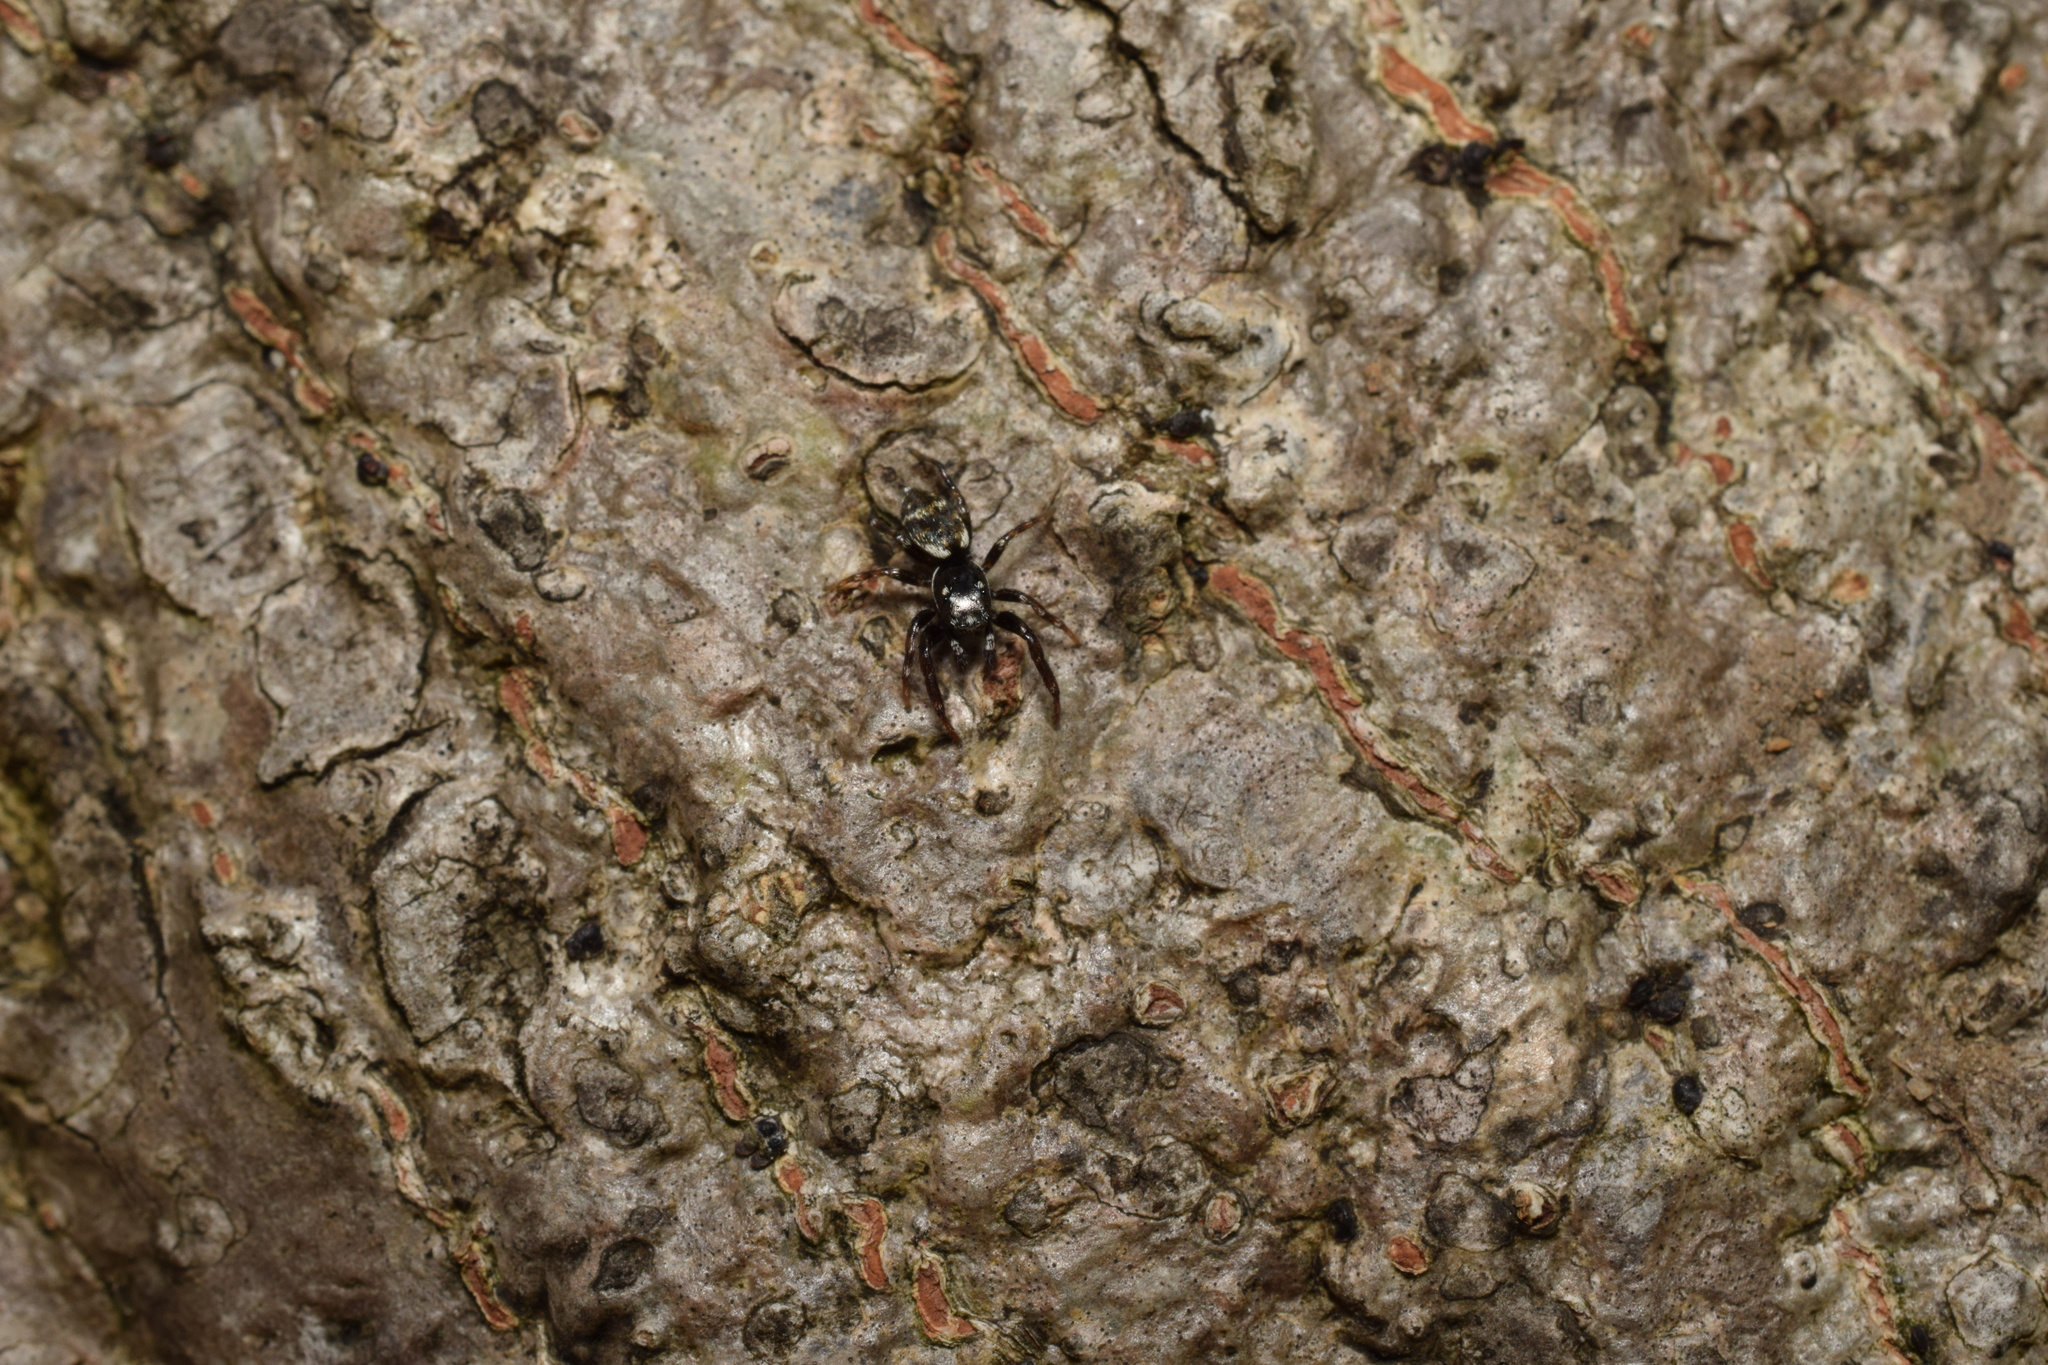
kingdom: Animalia
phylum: Arthropoda
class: Arachnida
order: Araneae
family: Salticidae
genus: Orienticius
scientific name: Orienticius vulpes
